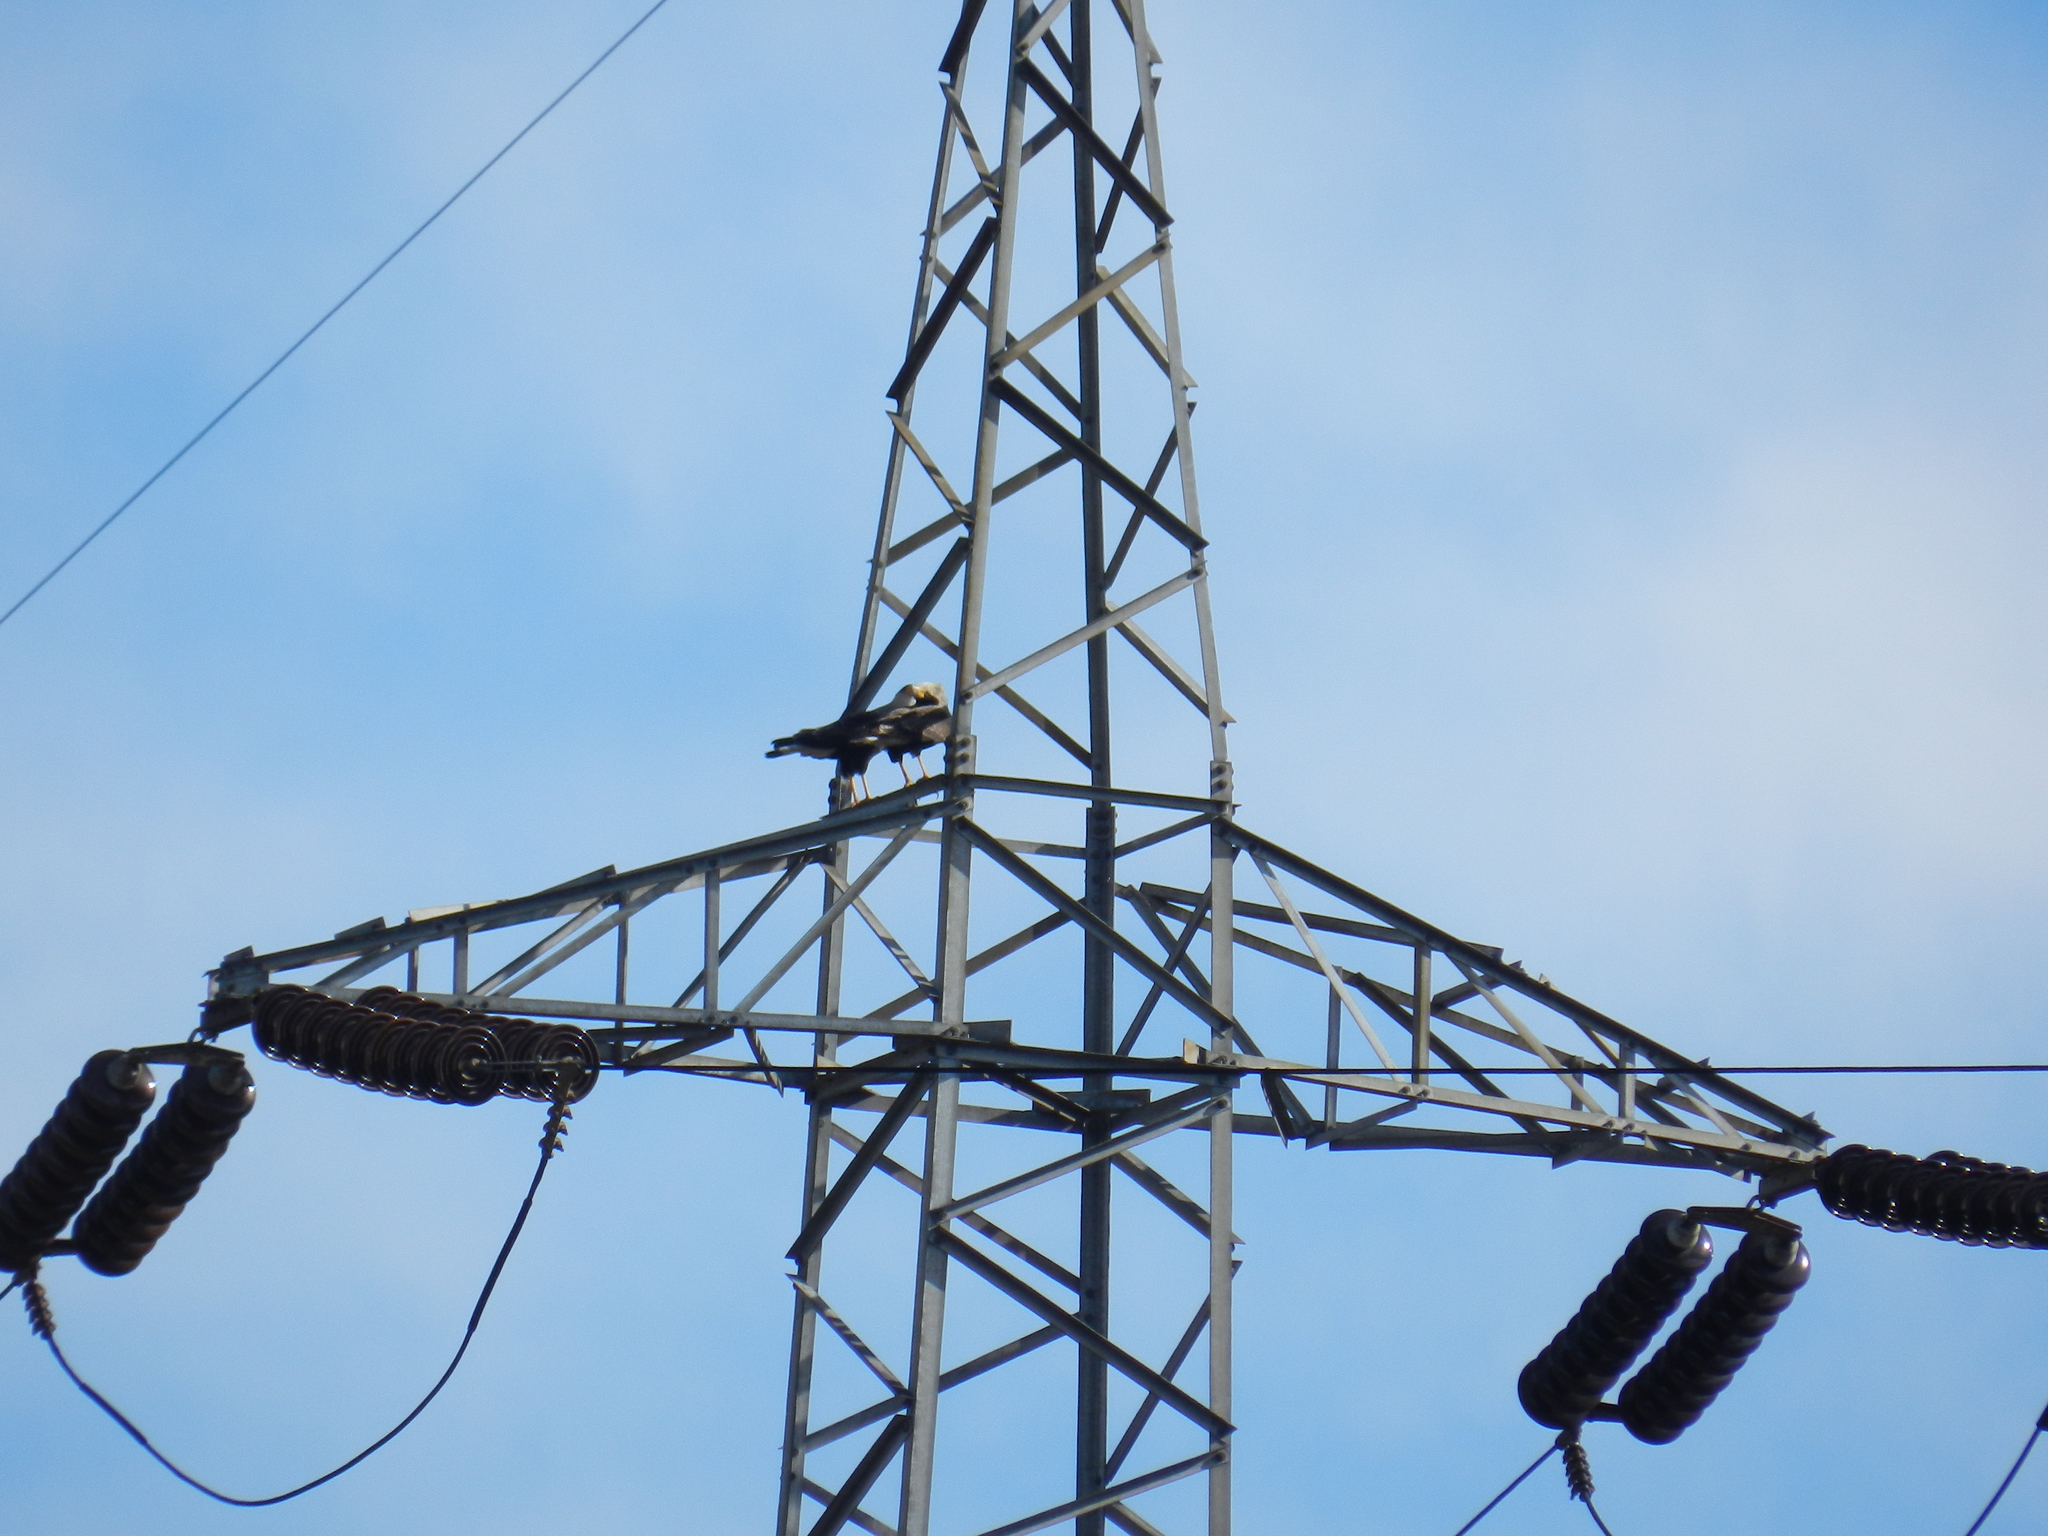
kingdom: Animalia
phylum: Chordata
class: Aves
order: Falconiformes
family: Falconidae
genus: Caracara
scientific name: Caracara plancus
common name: Southern caracara
